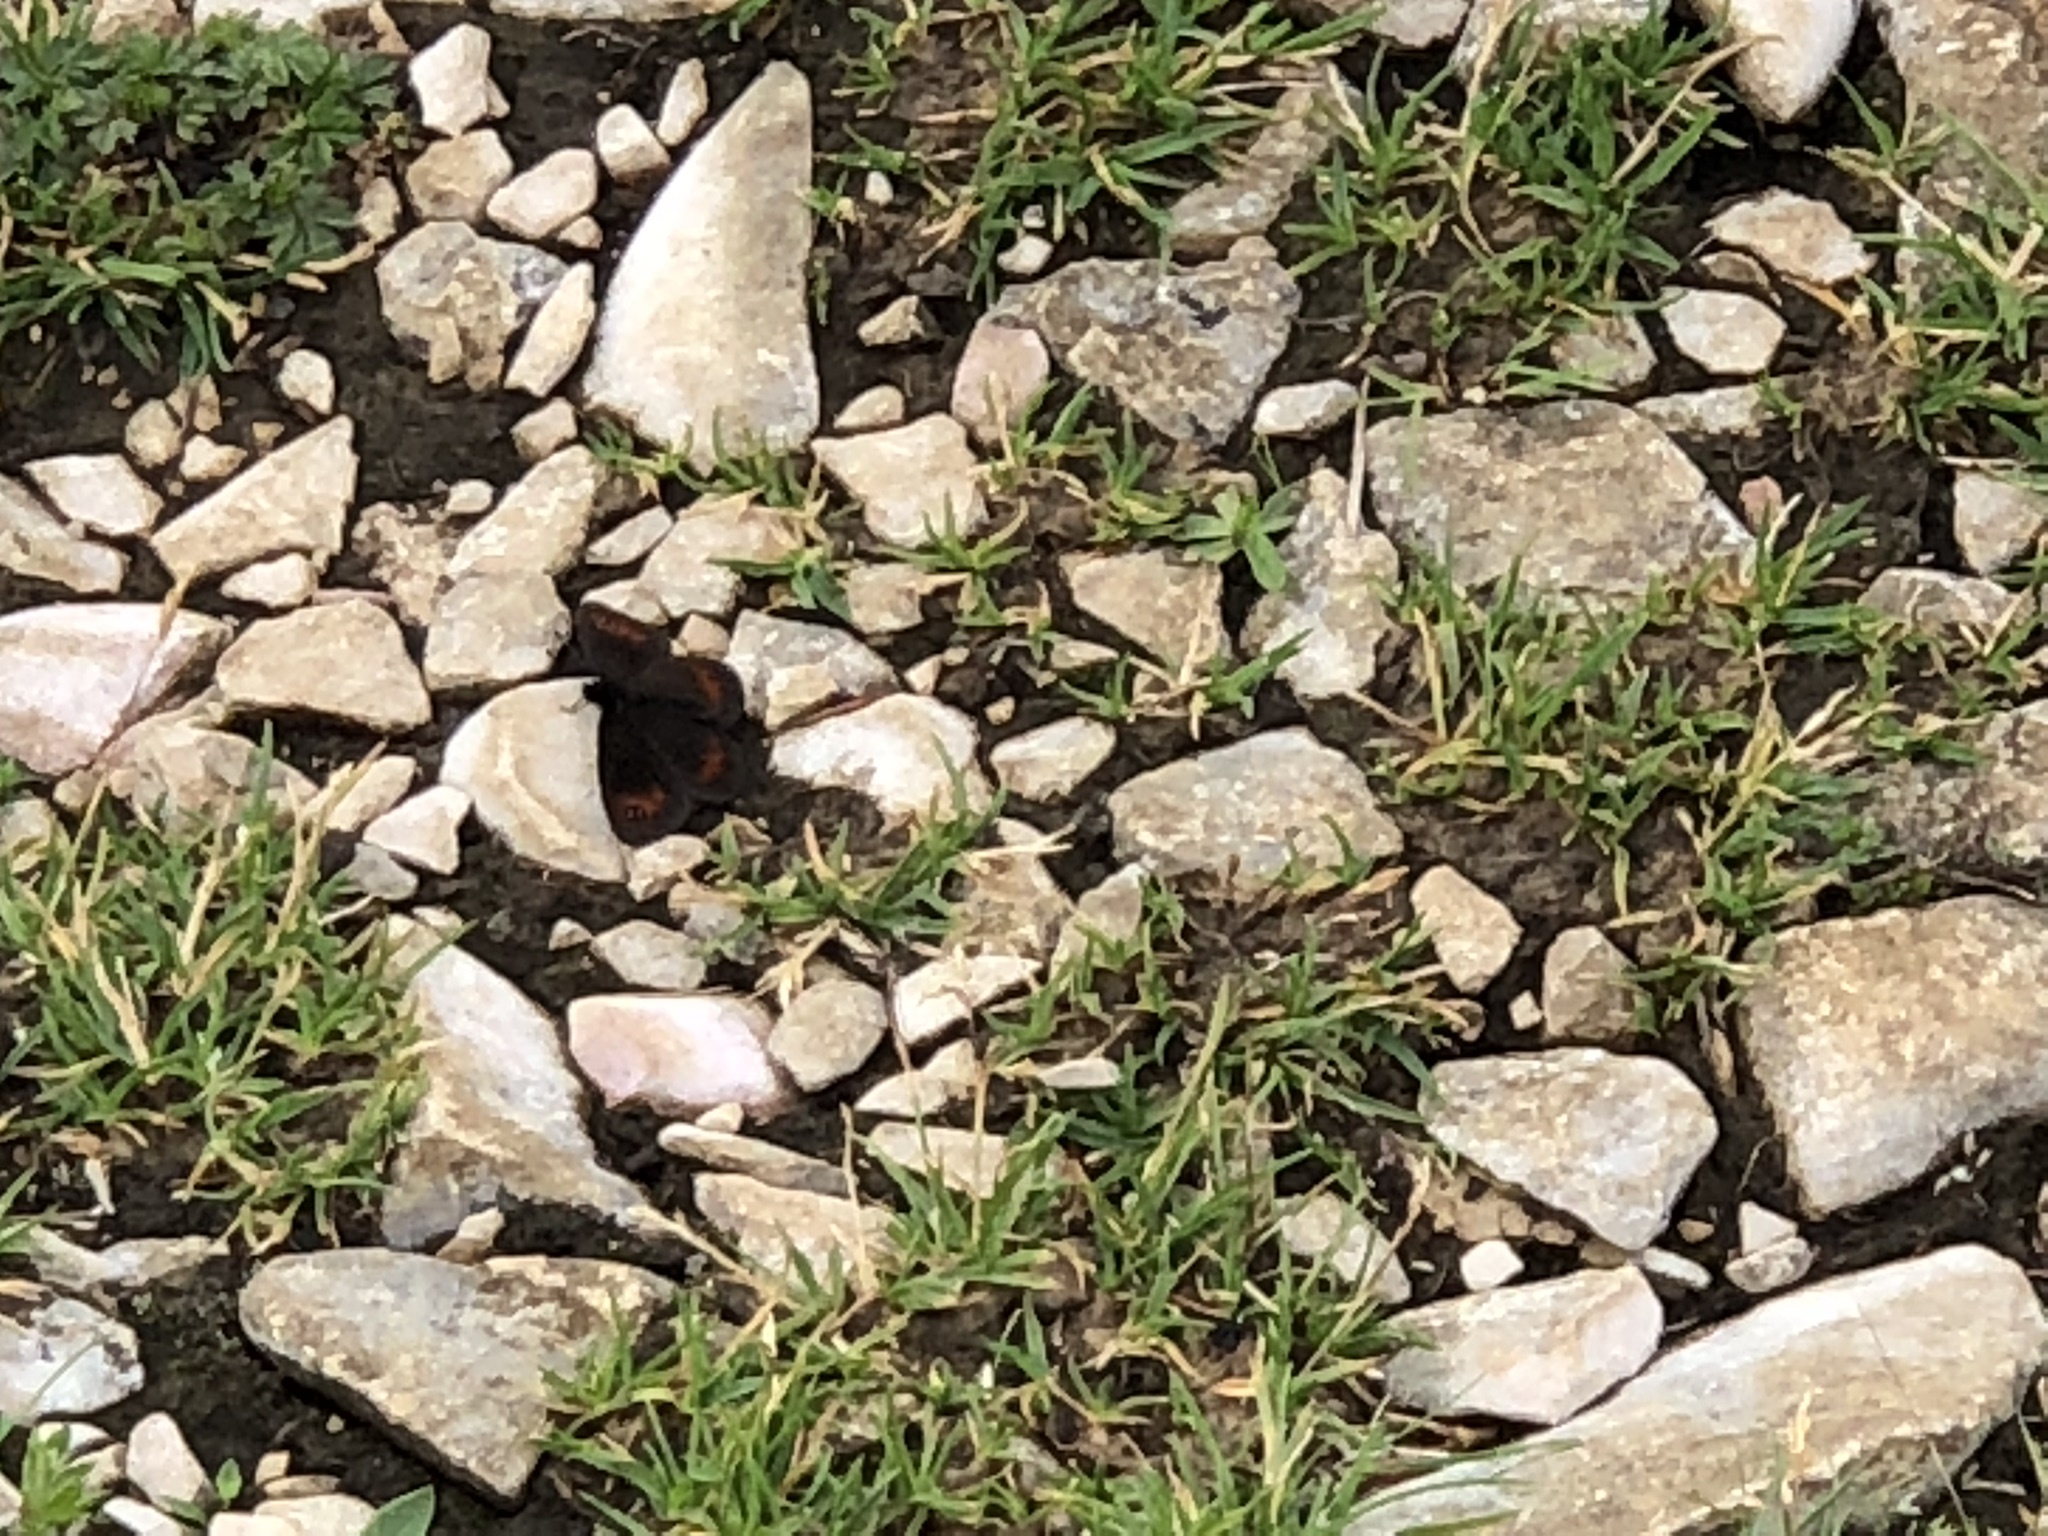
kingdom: Animalia
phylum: Arthropoda
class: Insecta
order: Lepidoptera
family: Nymphalidae
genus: Erebia
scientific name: Erebia meolans
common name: Piedmont ringlet
